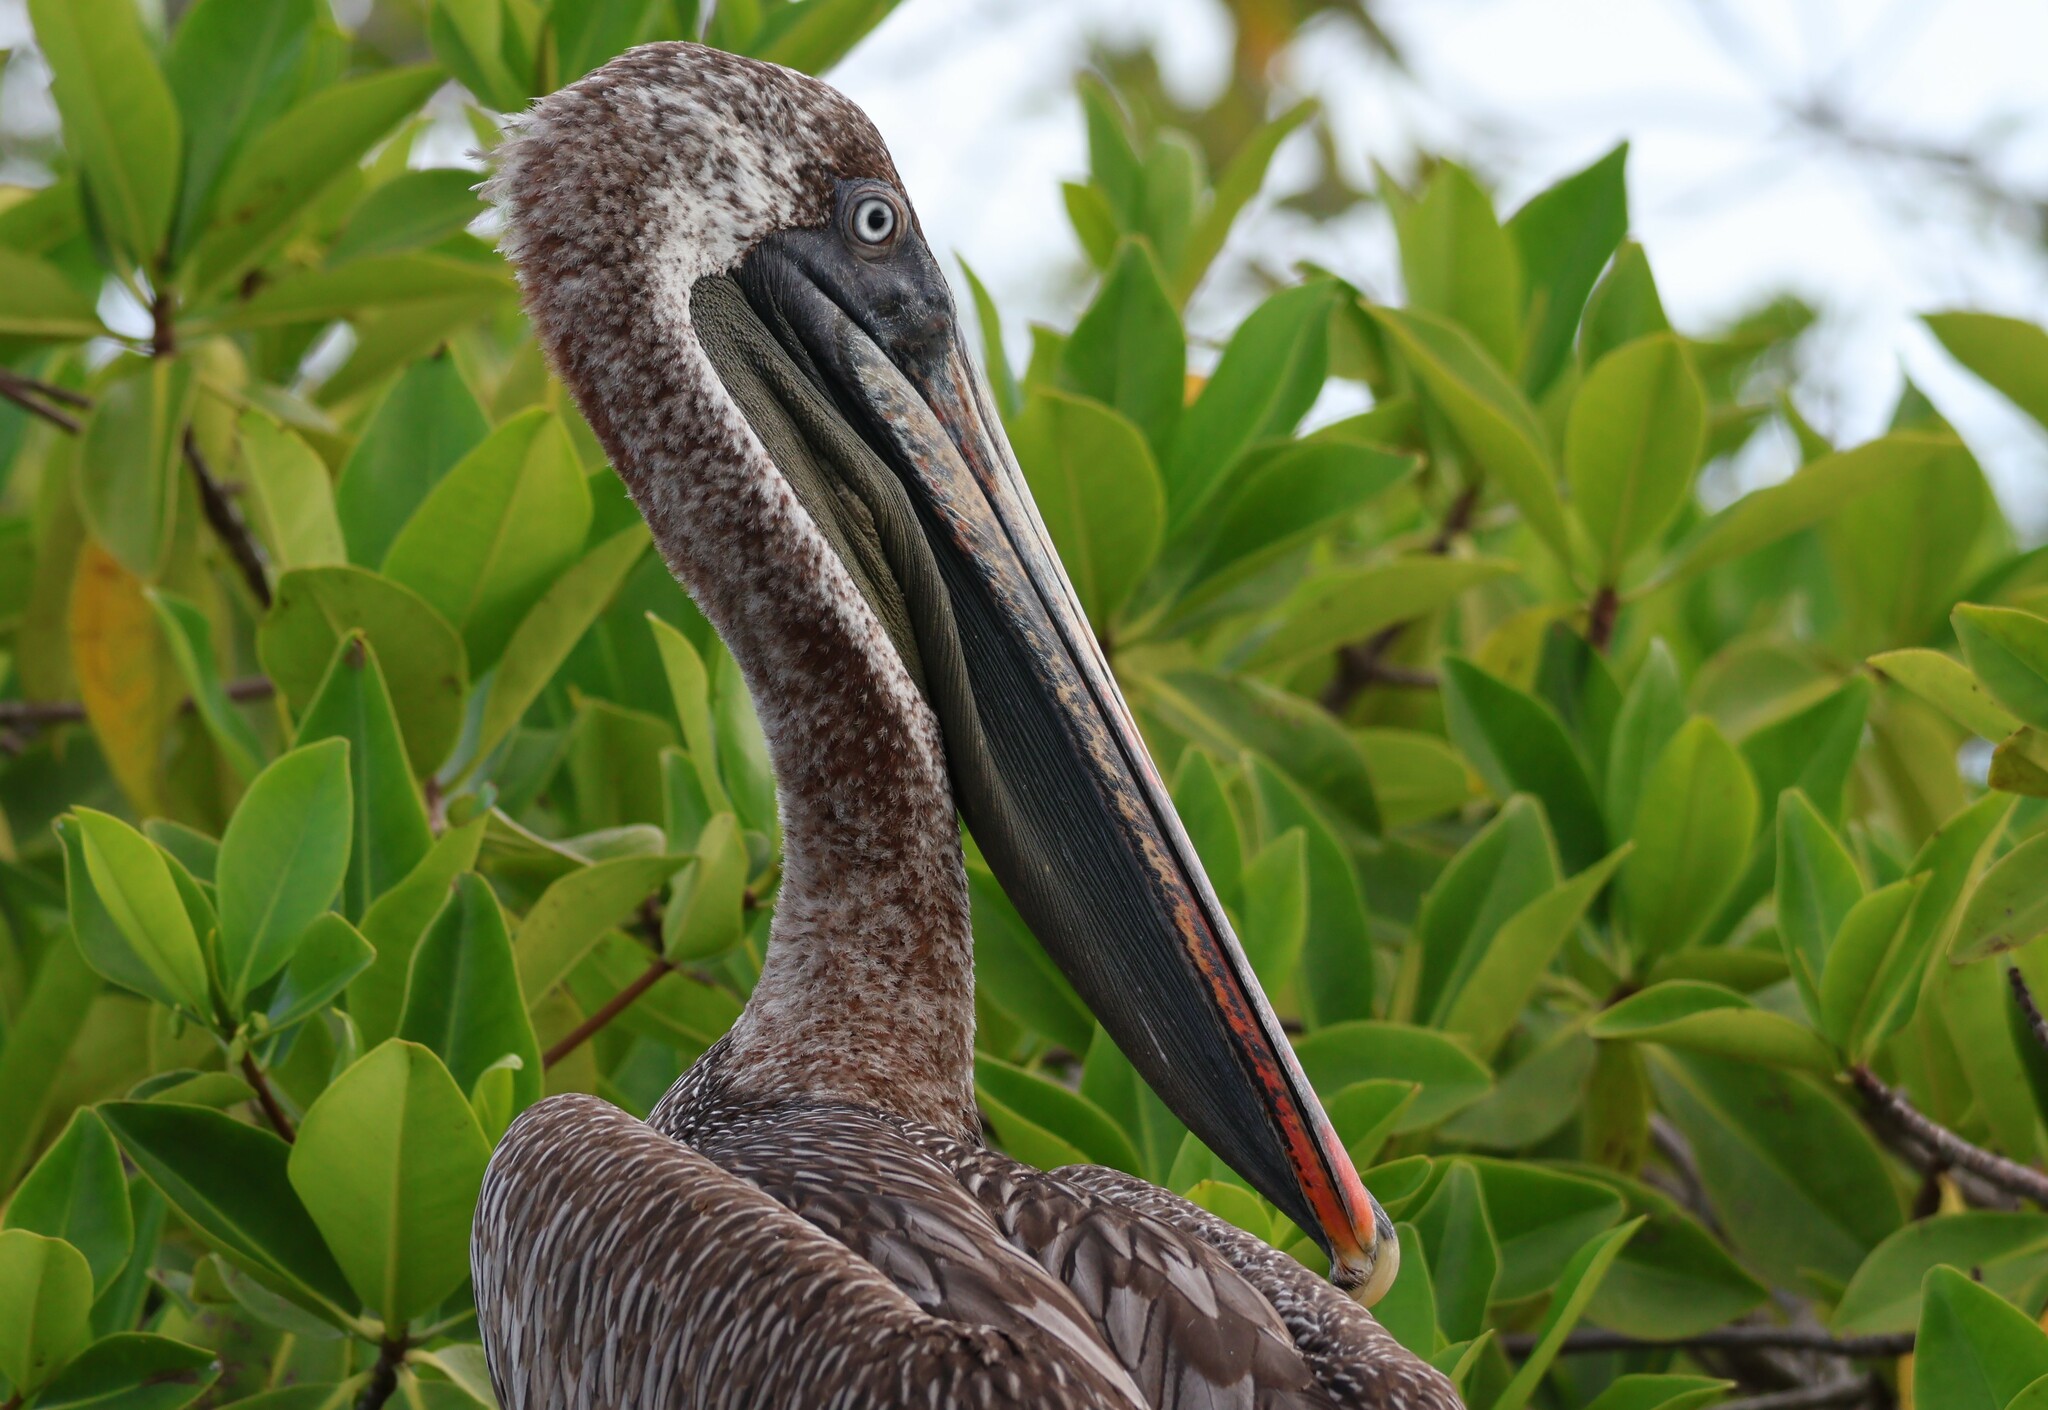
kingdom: Animalia
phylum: Chordata
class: Aves
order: Pelecaniformes
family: Pelecanidae
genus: Pelecanus
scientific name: Pelecanus occidentalis
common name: Brown pelican
